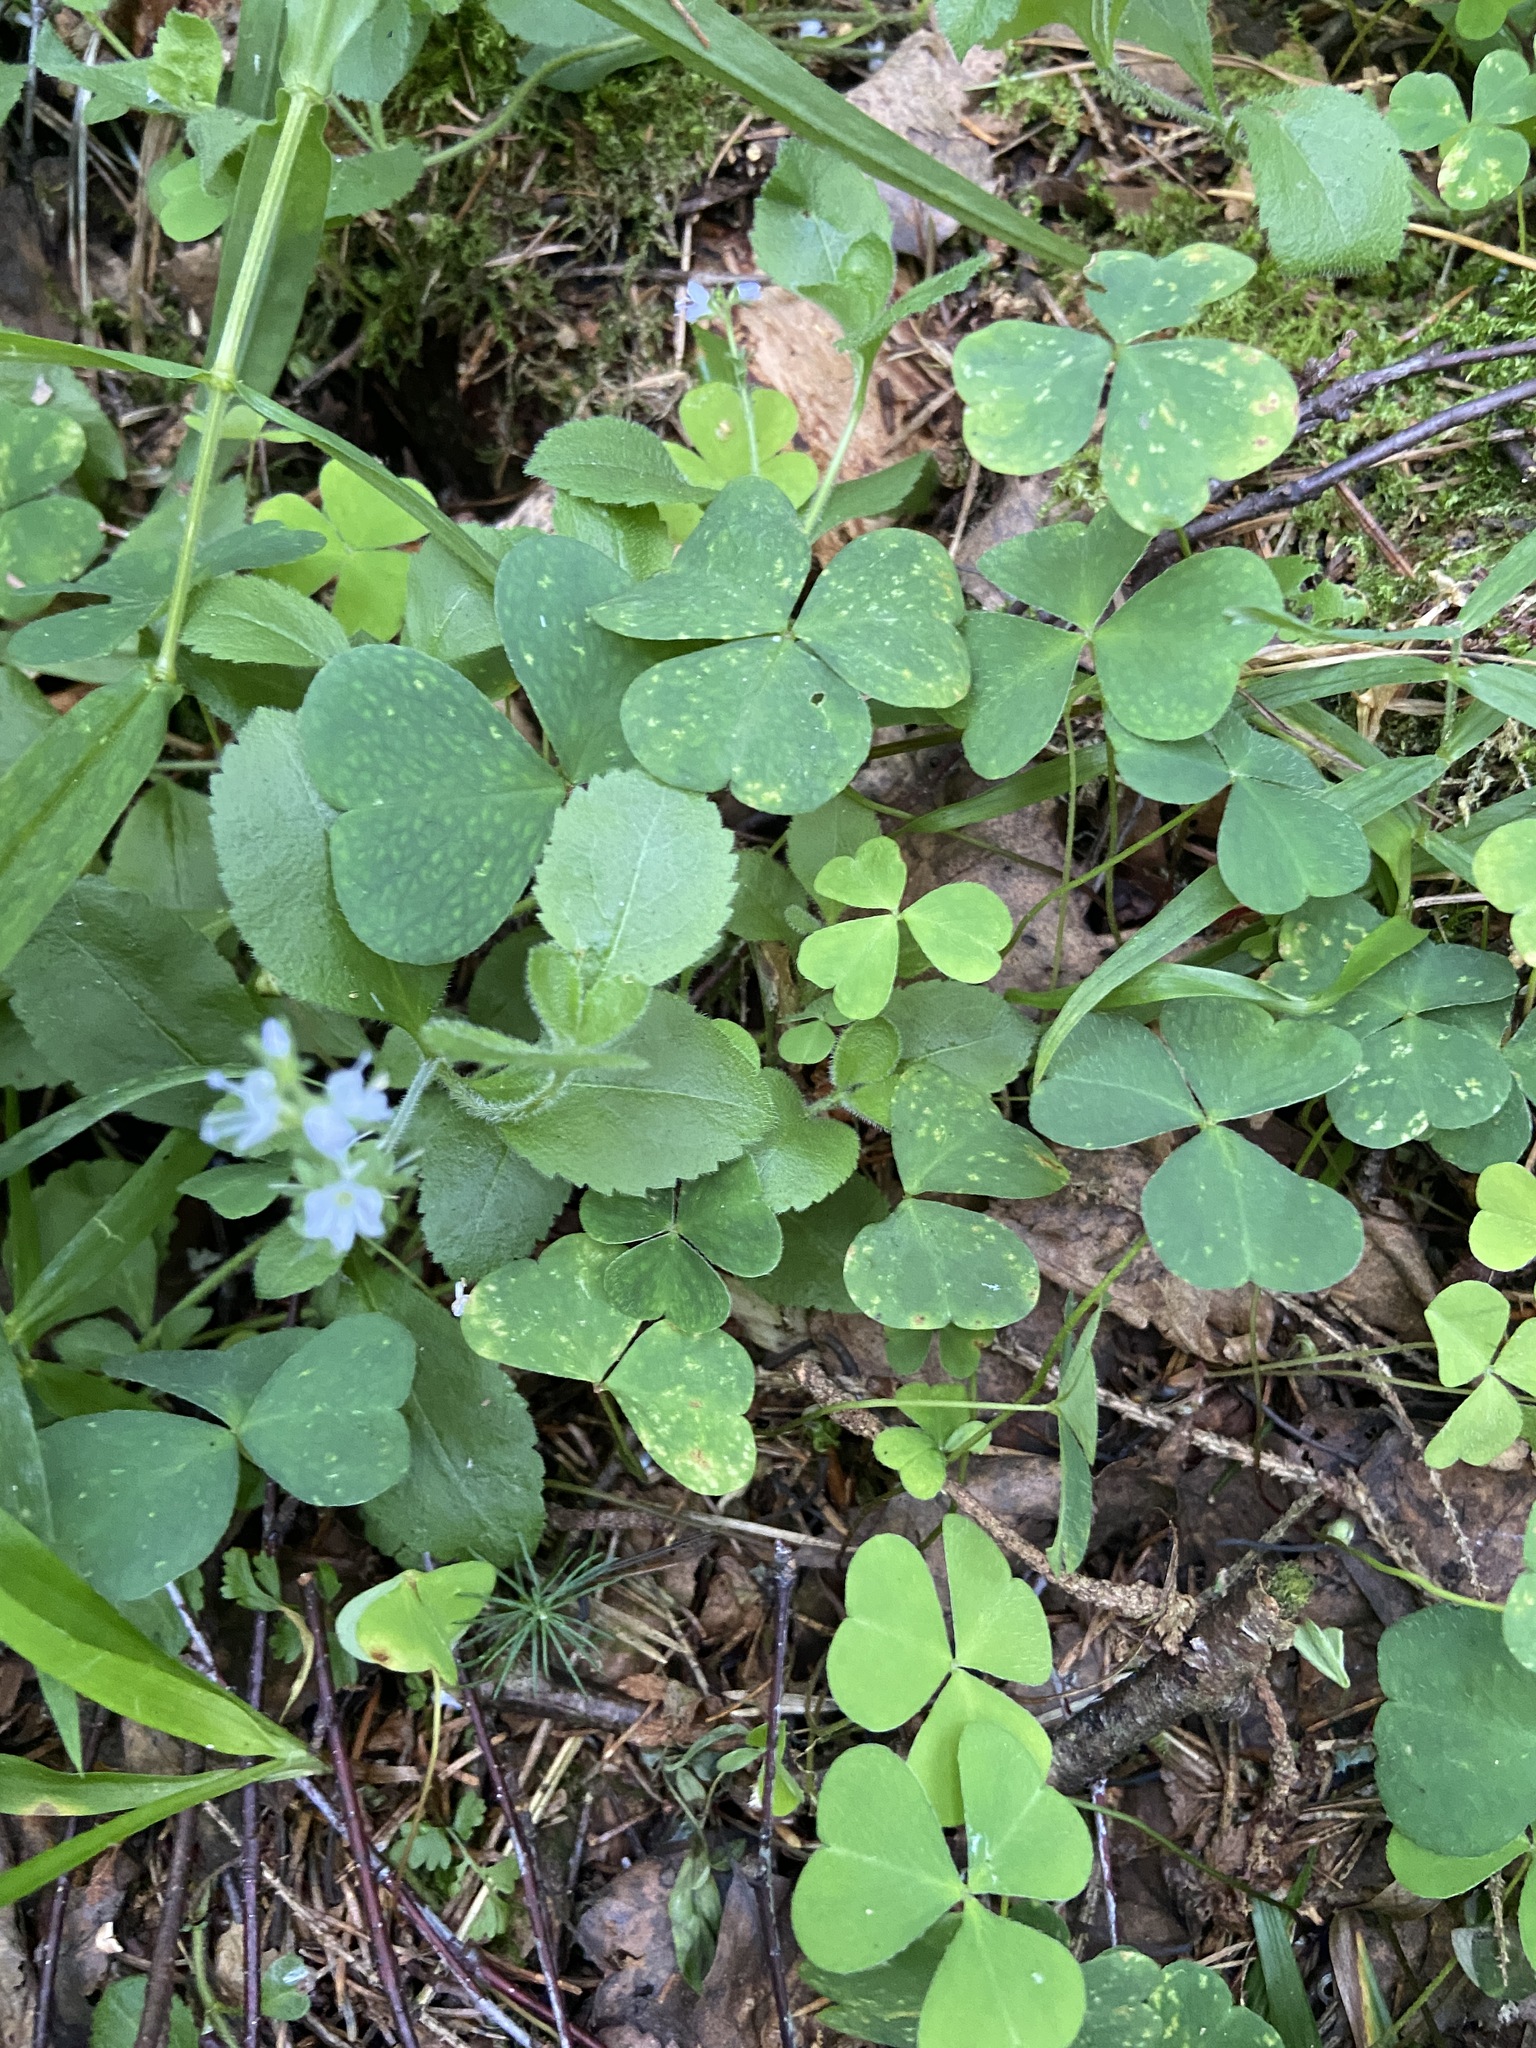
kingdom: Plantae
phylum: Tracheophyta
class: Magnoliopsida
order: Oxalidales
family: Oxalidaceae
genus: Oxalis
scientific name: Oxalis acetosella
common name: Wood-sorrel
